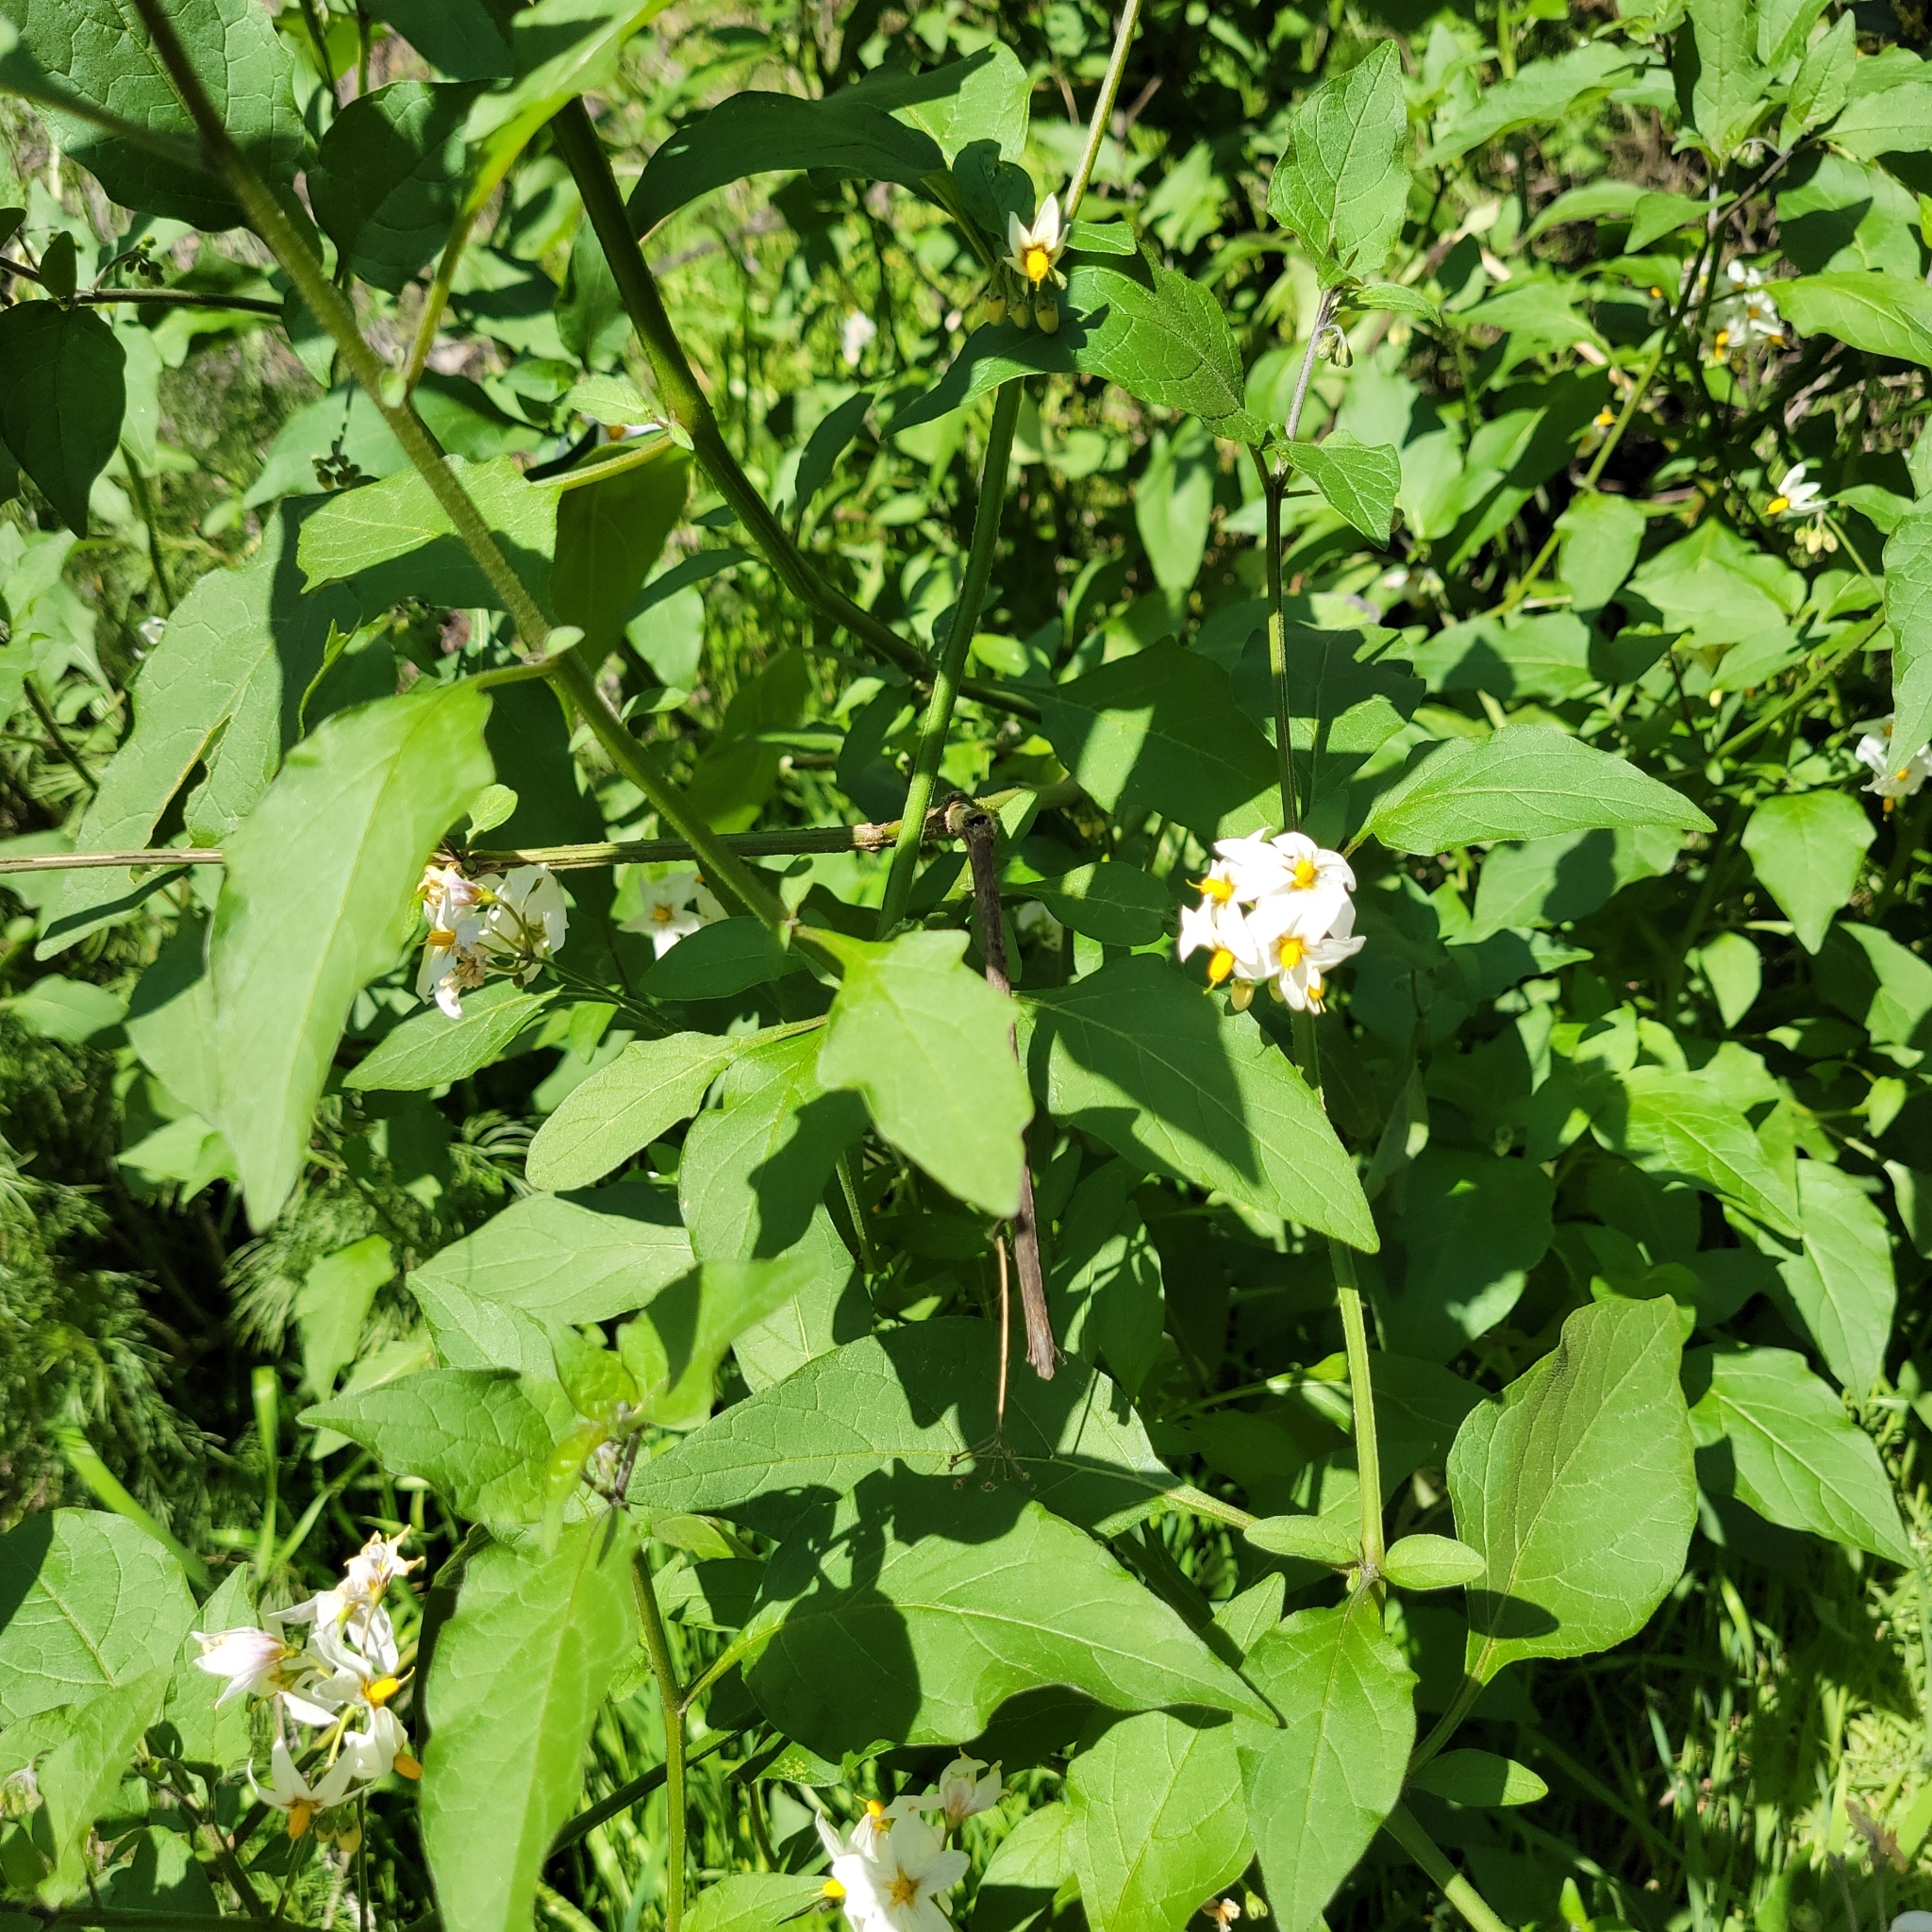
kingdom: Plantae
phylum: Tracheophyta
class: Magnoliopsida
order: Solanales
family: Solanaceae
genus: Solanum
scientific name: Solanum douglasii
